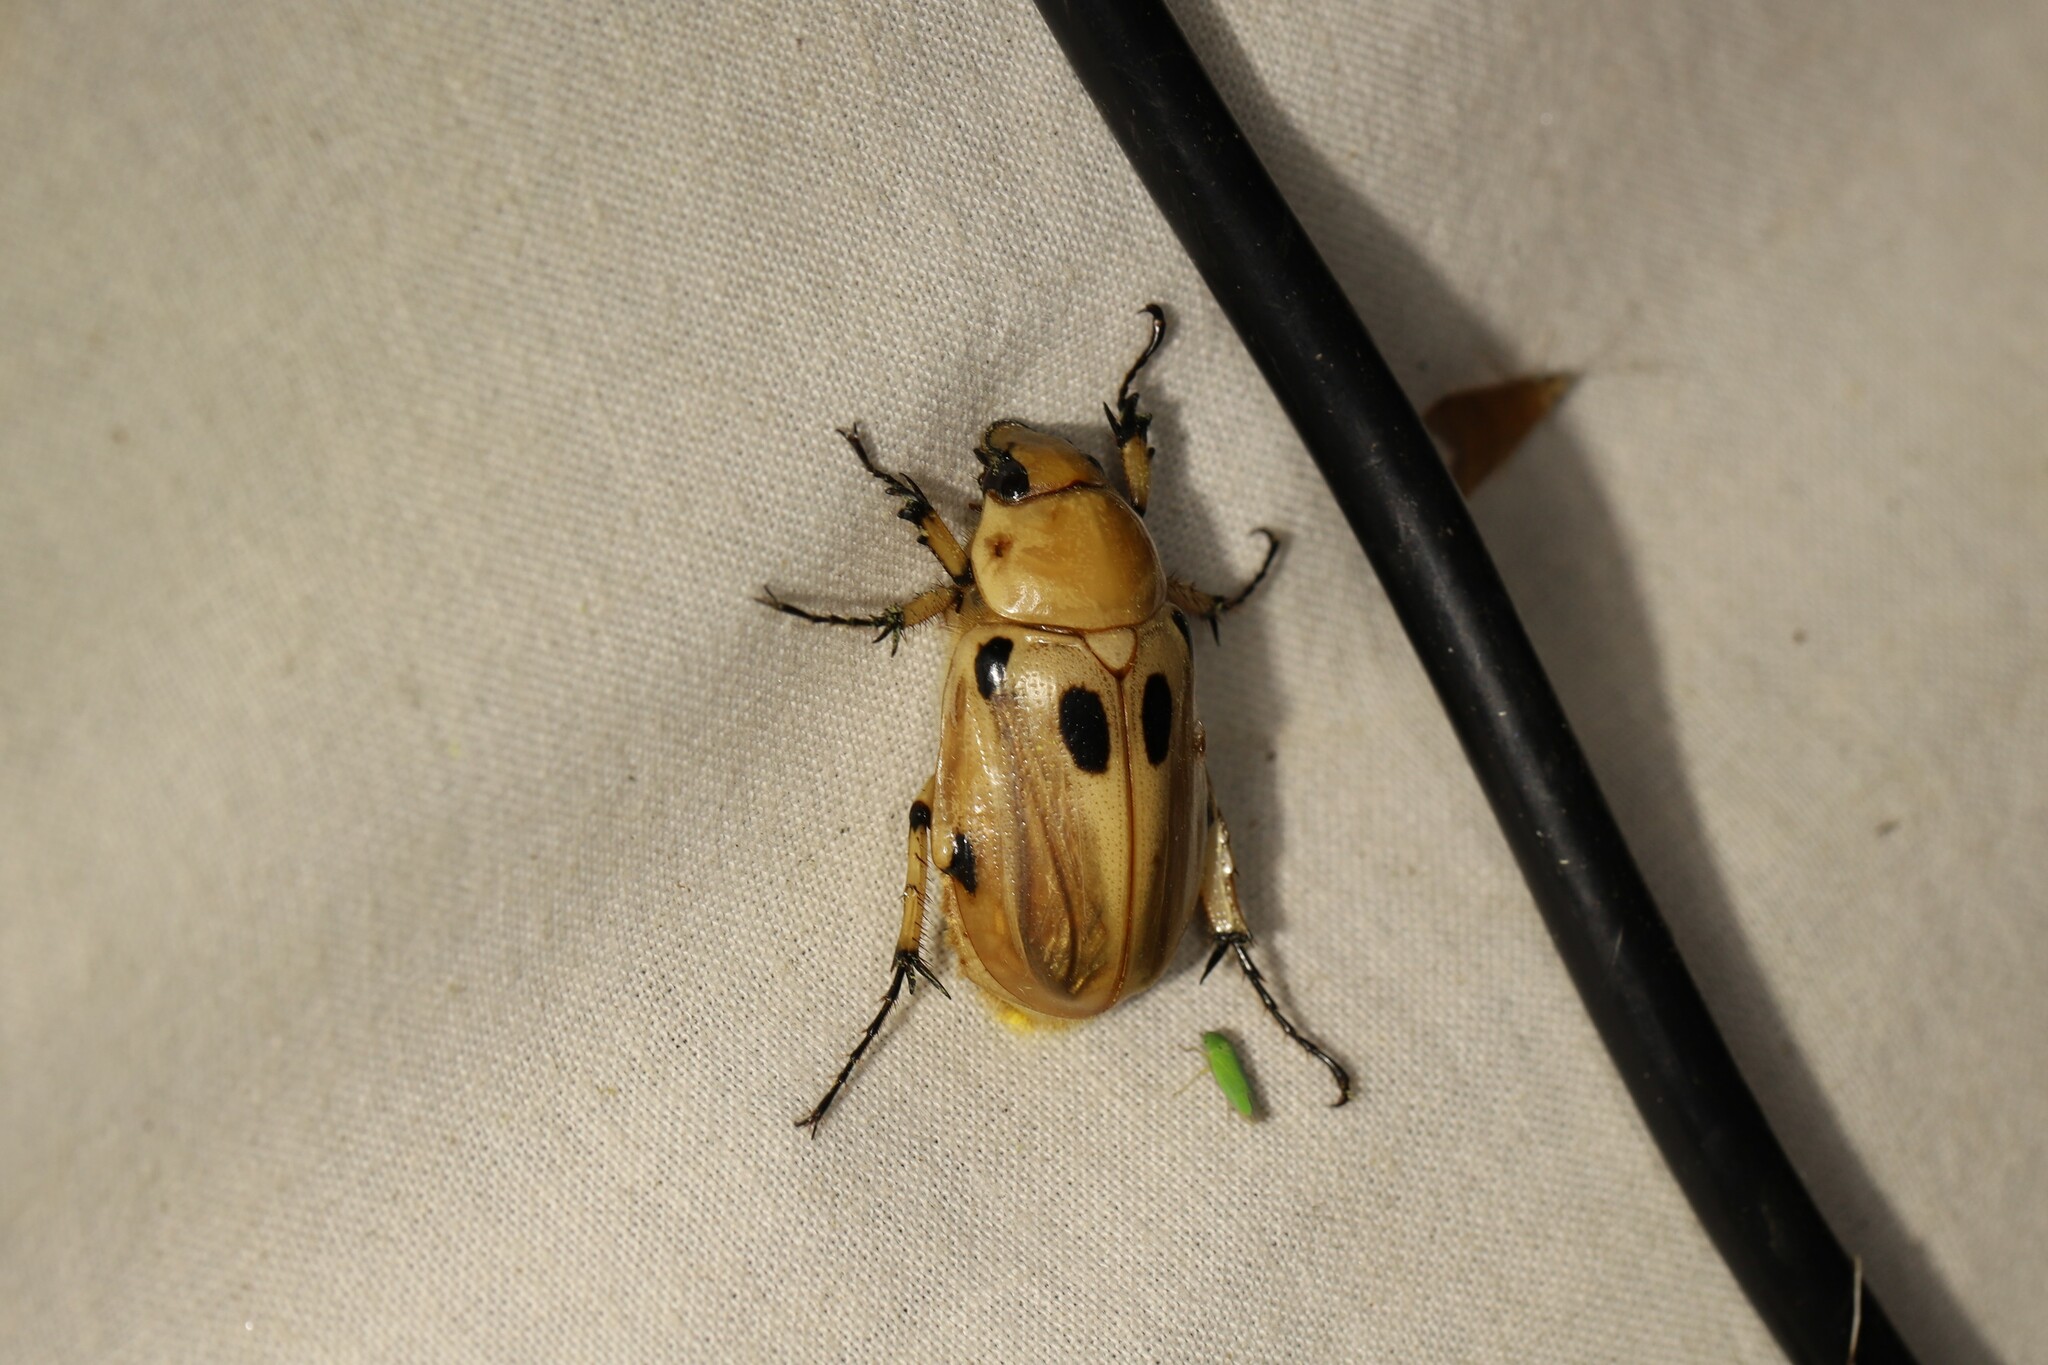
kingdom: Animalia
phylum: Arthropoda
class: Insecta
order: Coleoptera
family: Scarabaeidae
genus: Ancognatha
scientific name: Ancognatha vulgaris
